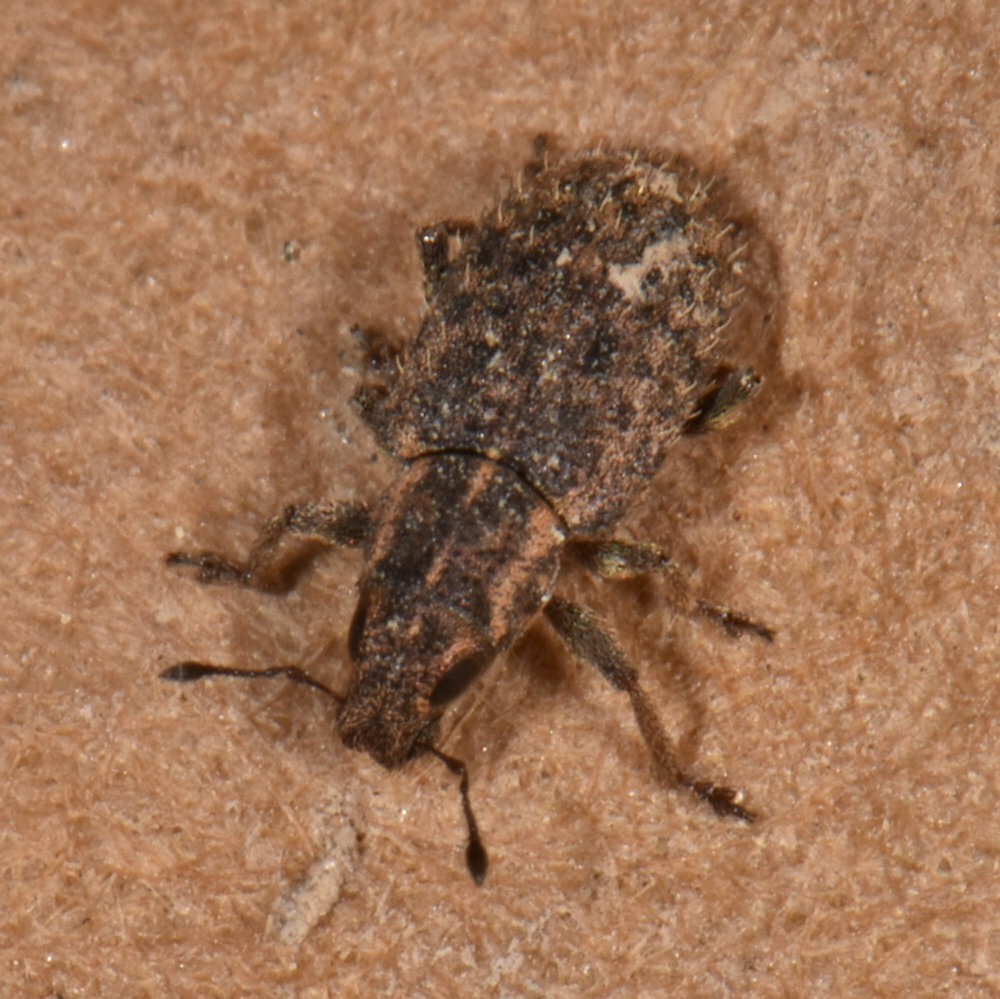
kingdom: Animalia
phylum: Arthropoda
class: Insecta
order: Coleoptera
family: Curculionidae
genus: Sitona
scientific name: Sitona hispidulus
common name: Clover weevil
